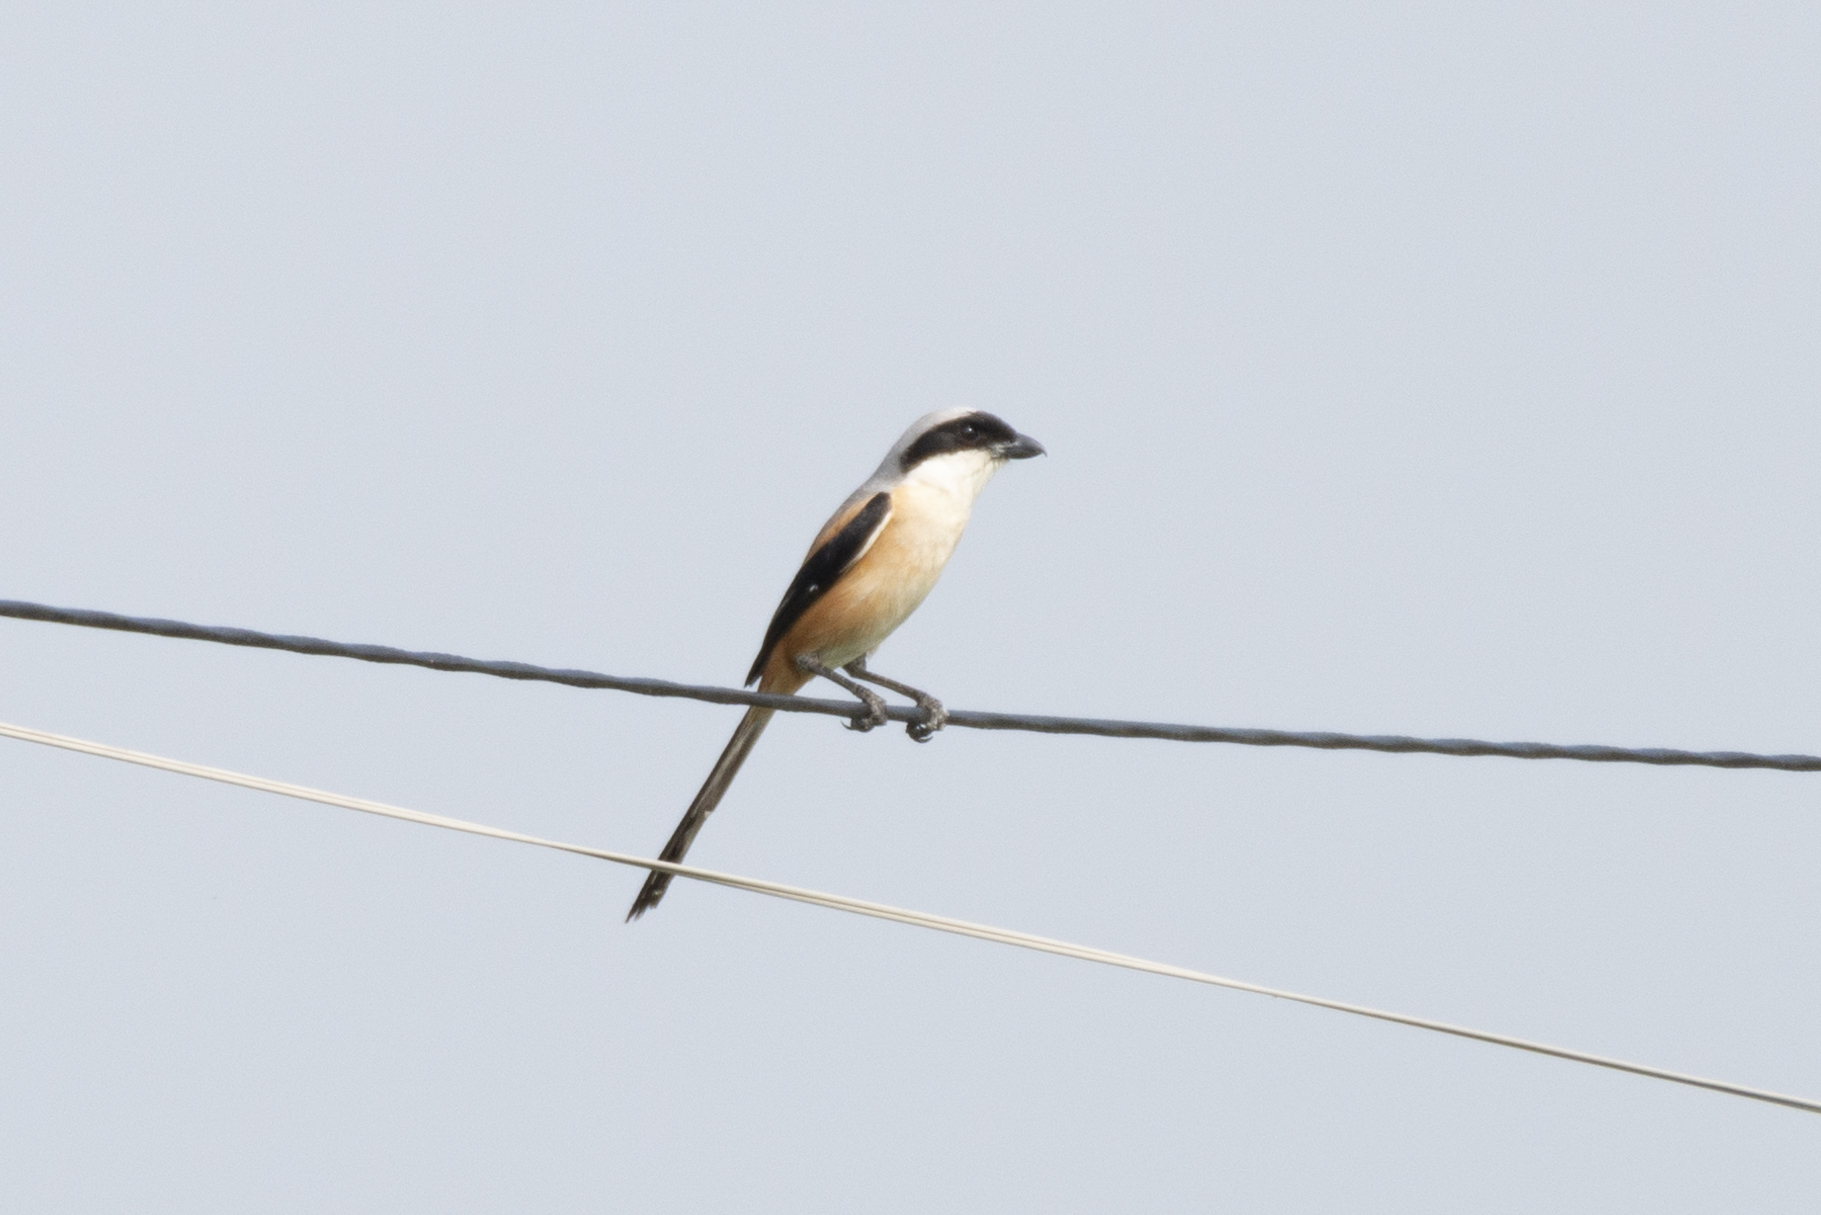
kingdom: Animalia
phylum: Chordata
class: Aves
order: Passeriformes
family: Laniidae
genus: Lanius
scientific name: Lanius schach
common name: Long-tailed shrike
